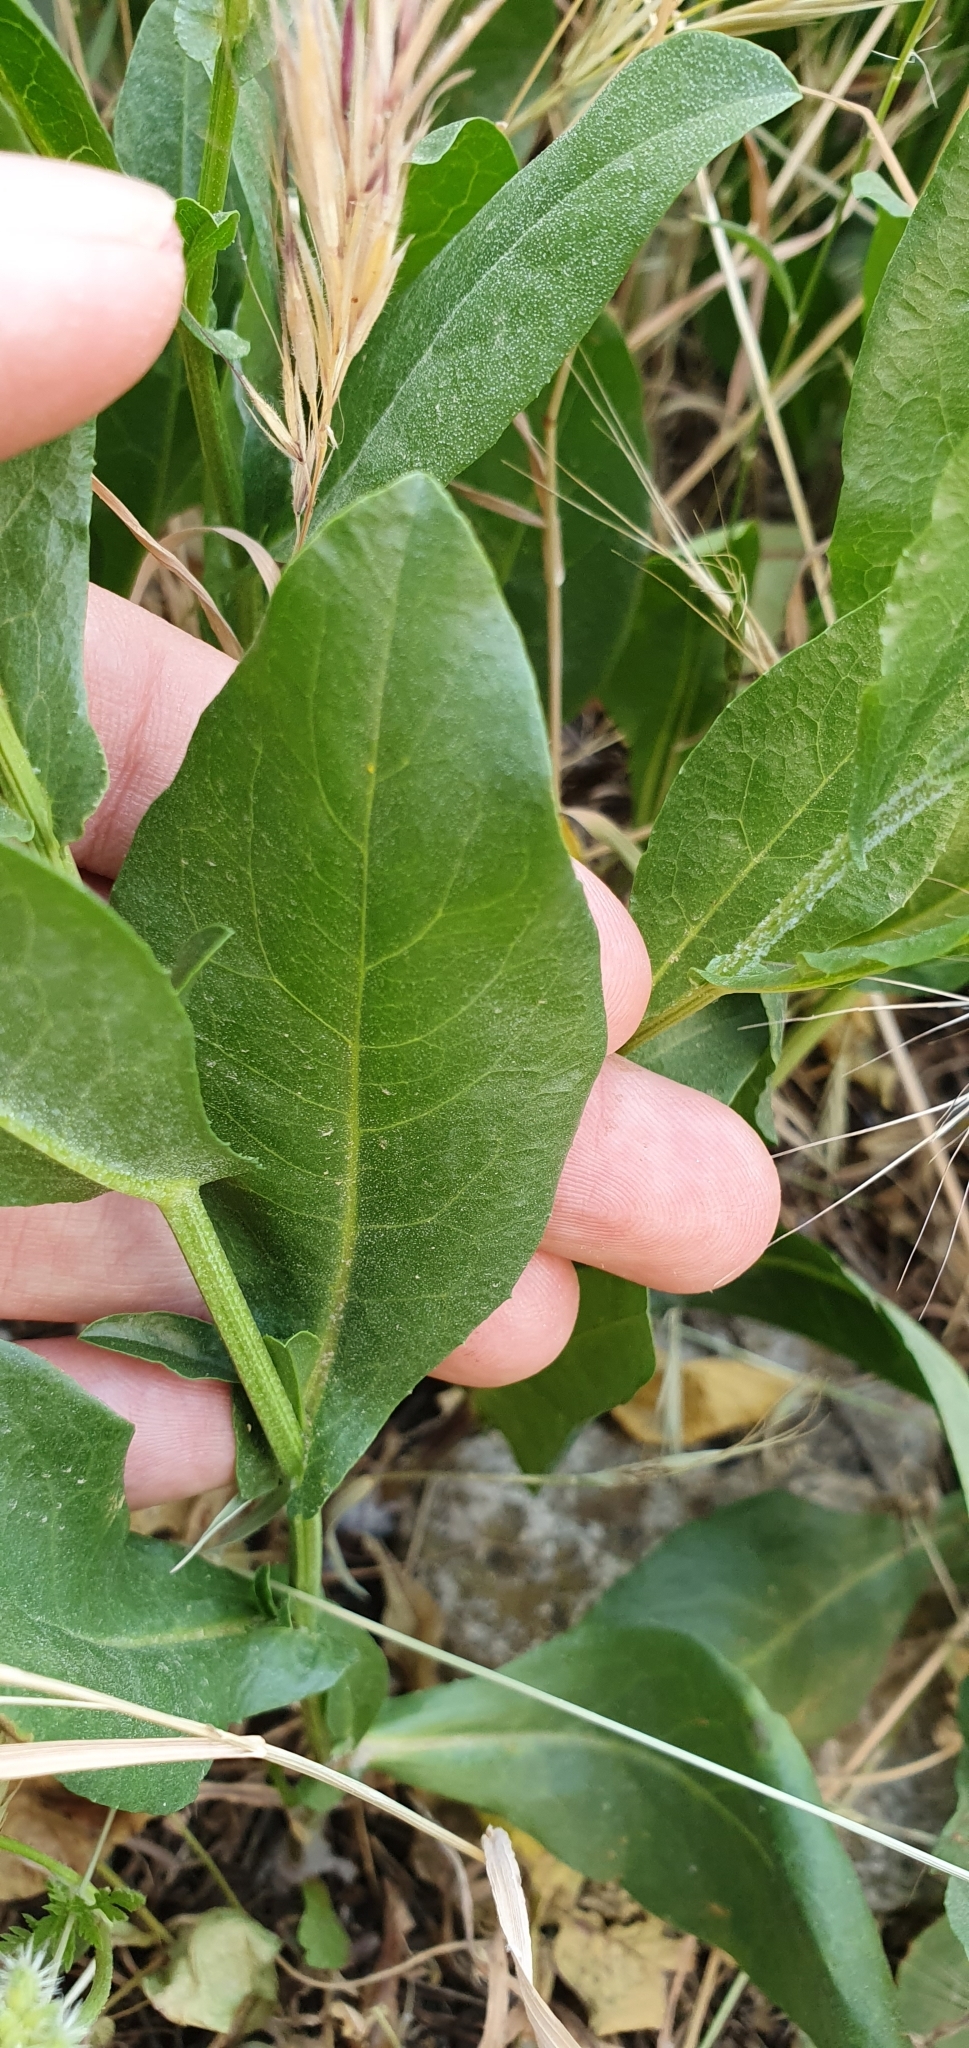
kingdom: Plantae
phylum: Tracheophyta
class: Magnoliopsida
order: Caryophyllales
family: Plumbaginaceae
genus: Plumbago
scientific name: Plumbago europaea
